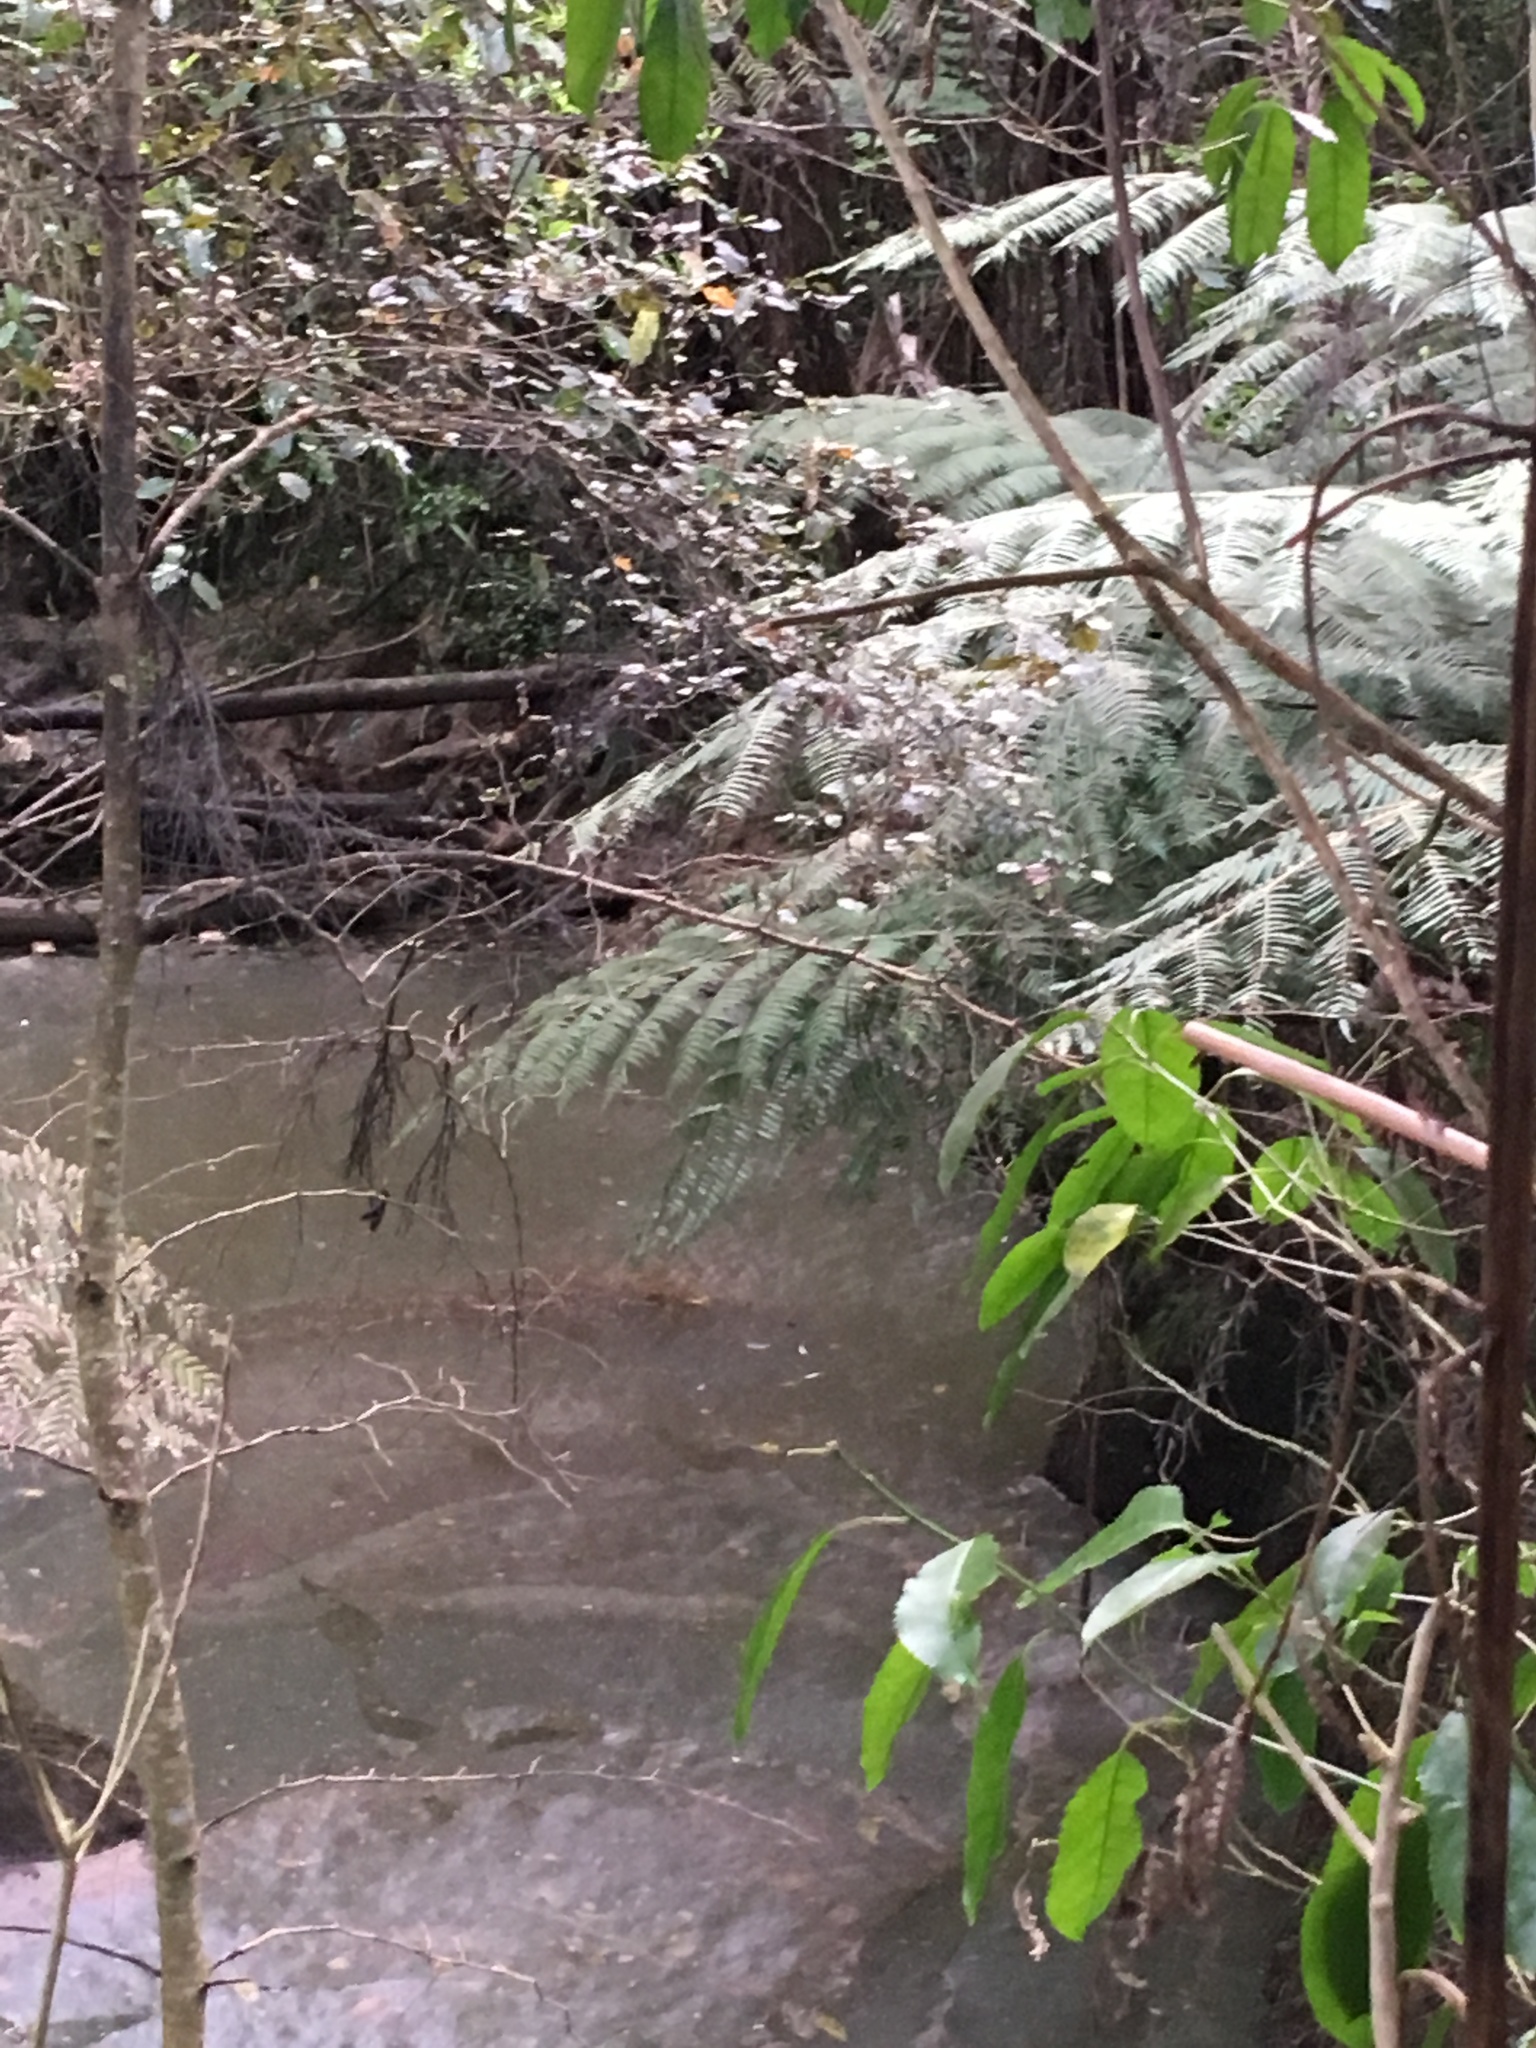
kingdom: Plantae
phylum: Tracheophyta
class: Magnoliopsida
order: Malpighiales
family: Violaceae
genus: Melicytus
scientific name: Melicytus ramiflorus
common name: Mahoe
